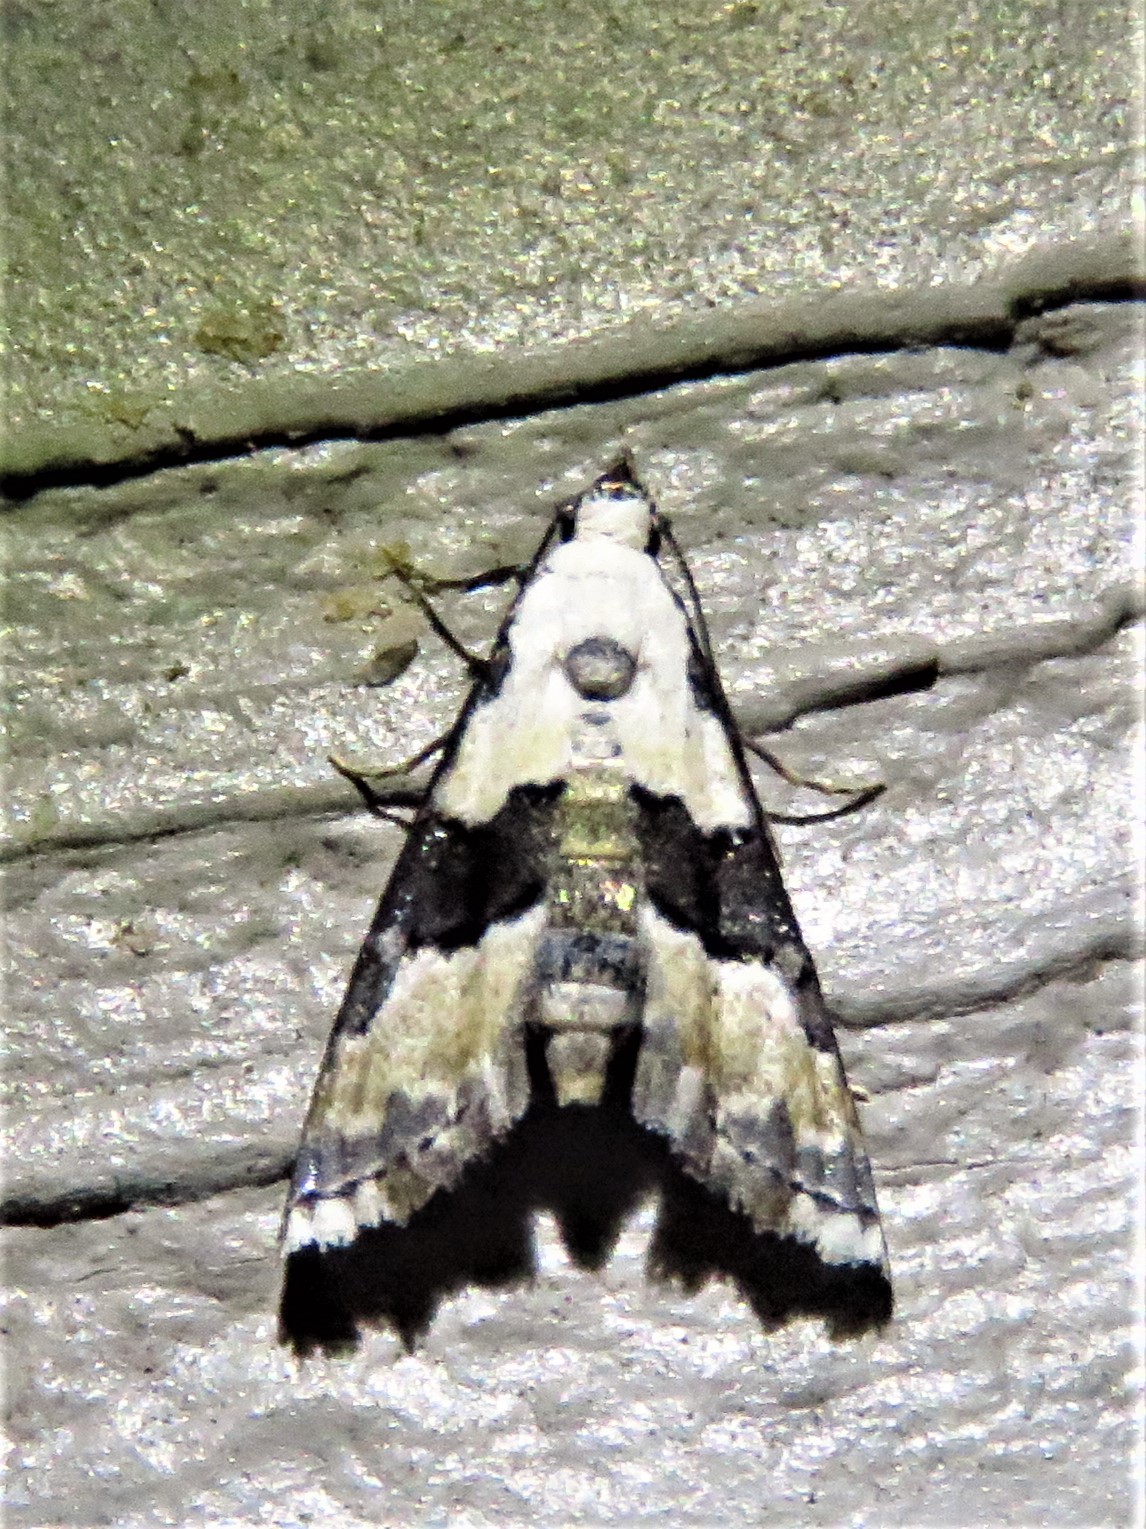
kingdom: Animalia
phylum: Arthropoda
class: Insecta
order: Lepidoptera
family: Noctuidae
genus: Nigetia
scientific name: Nigetia formosalis
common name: Thin-winged owlet
